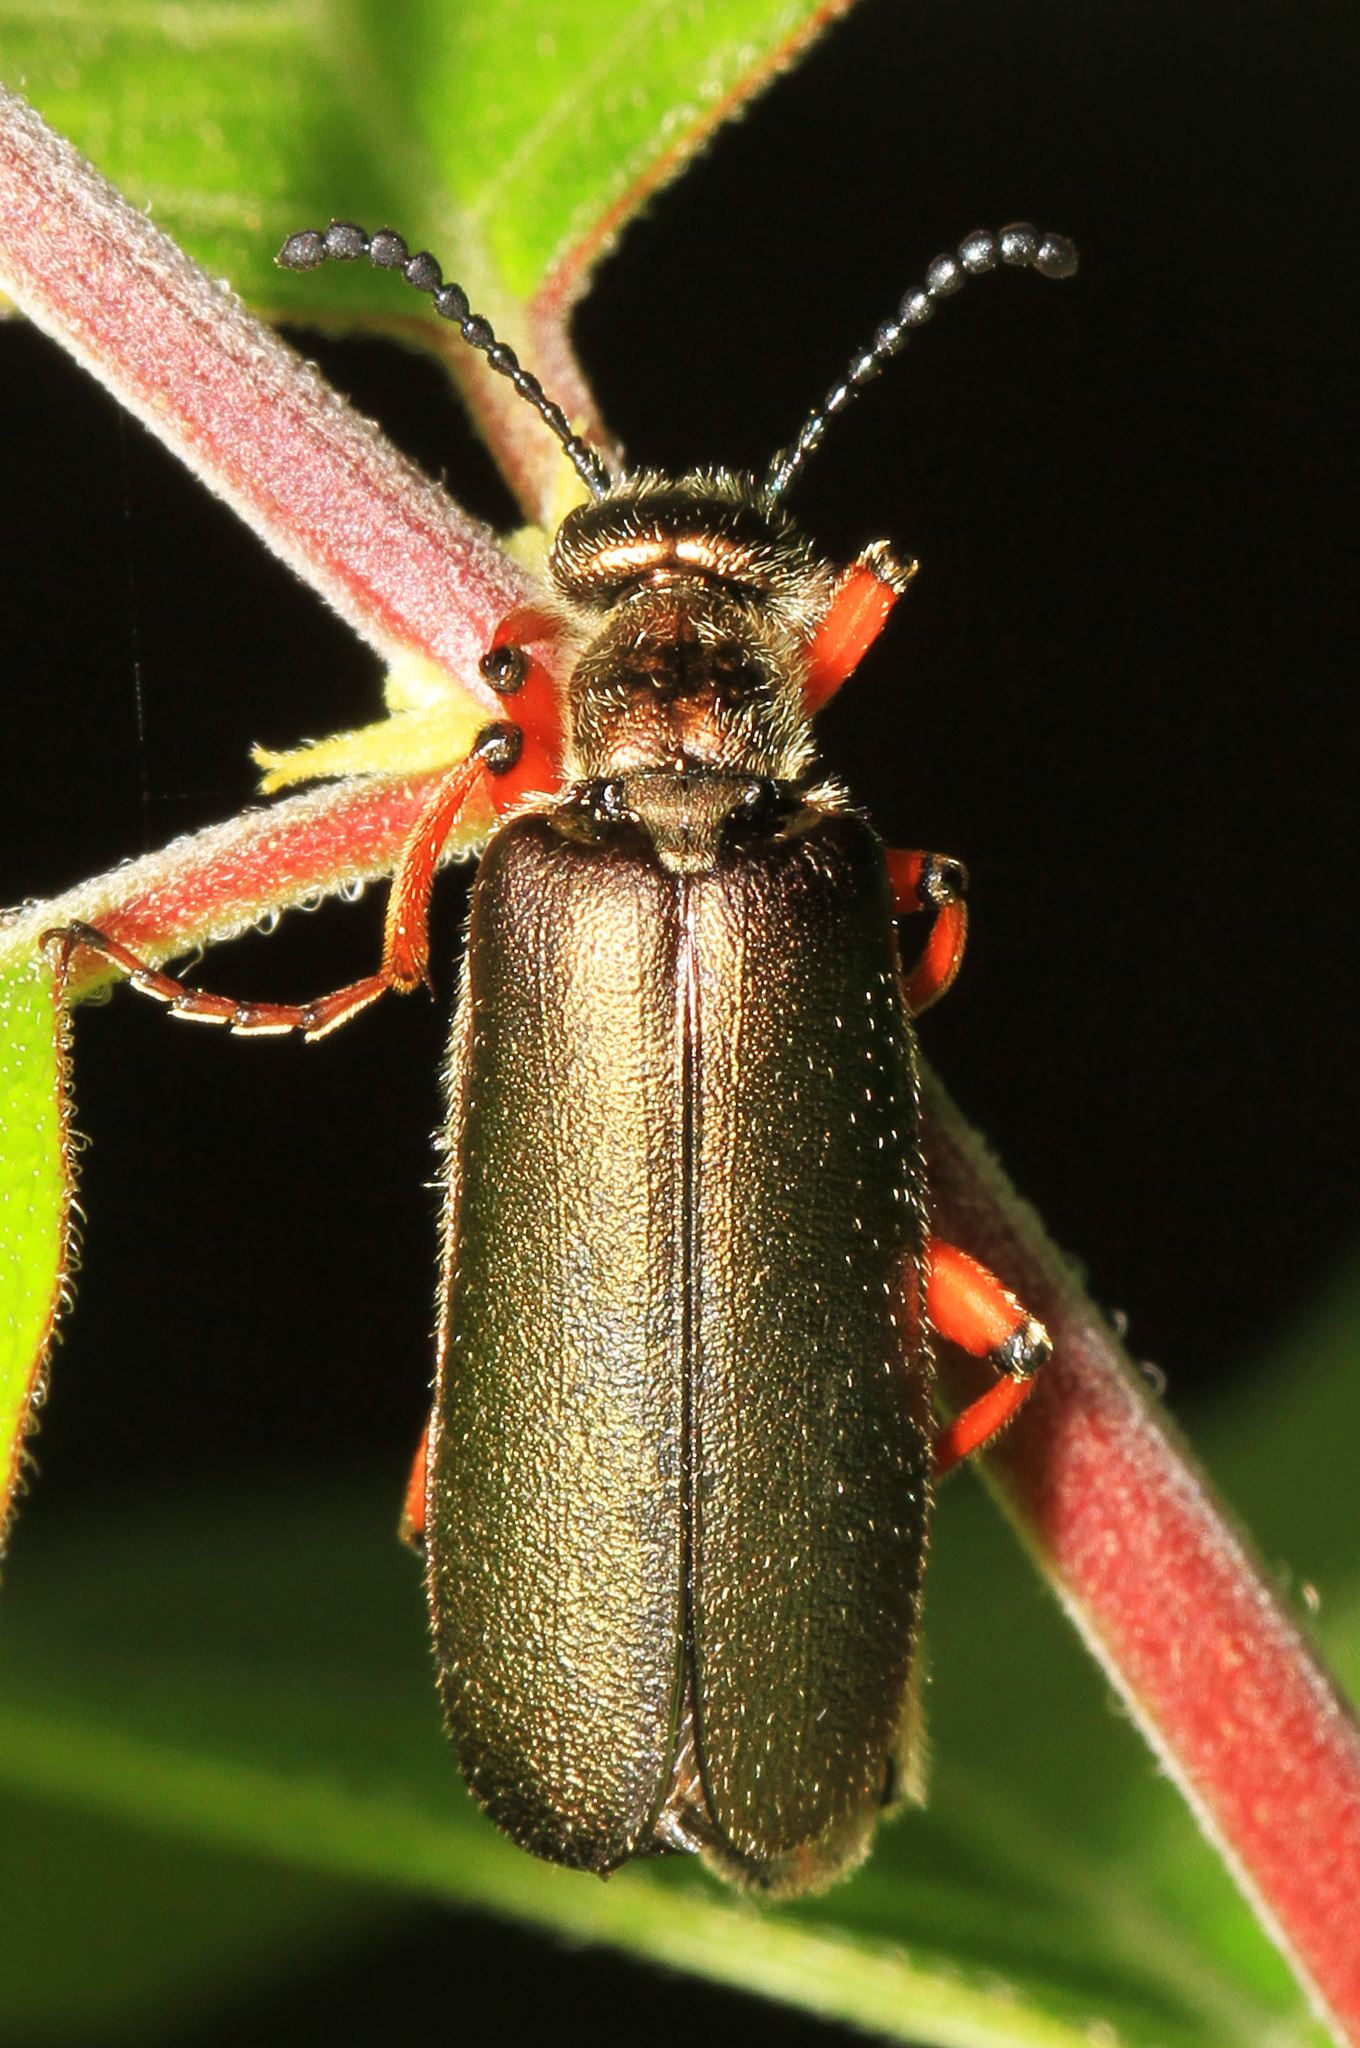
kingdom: Animalia
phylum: Arthropoda
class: Insecta
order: Coleoptera
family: Meloidae
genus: Lytta
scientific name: Lytta aenea
